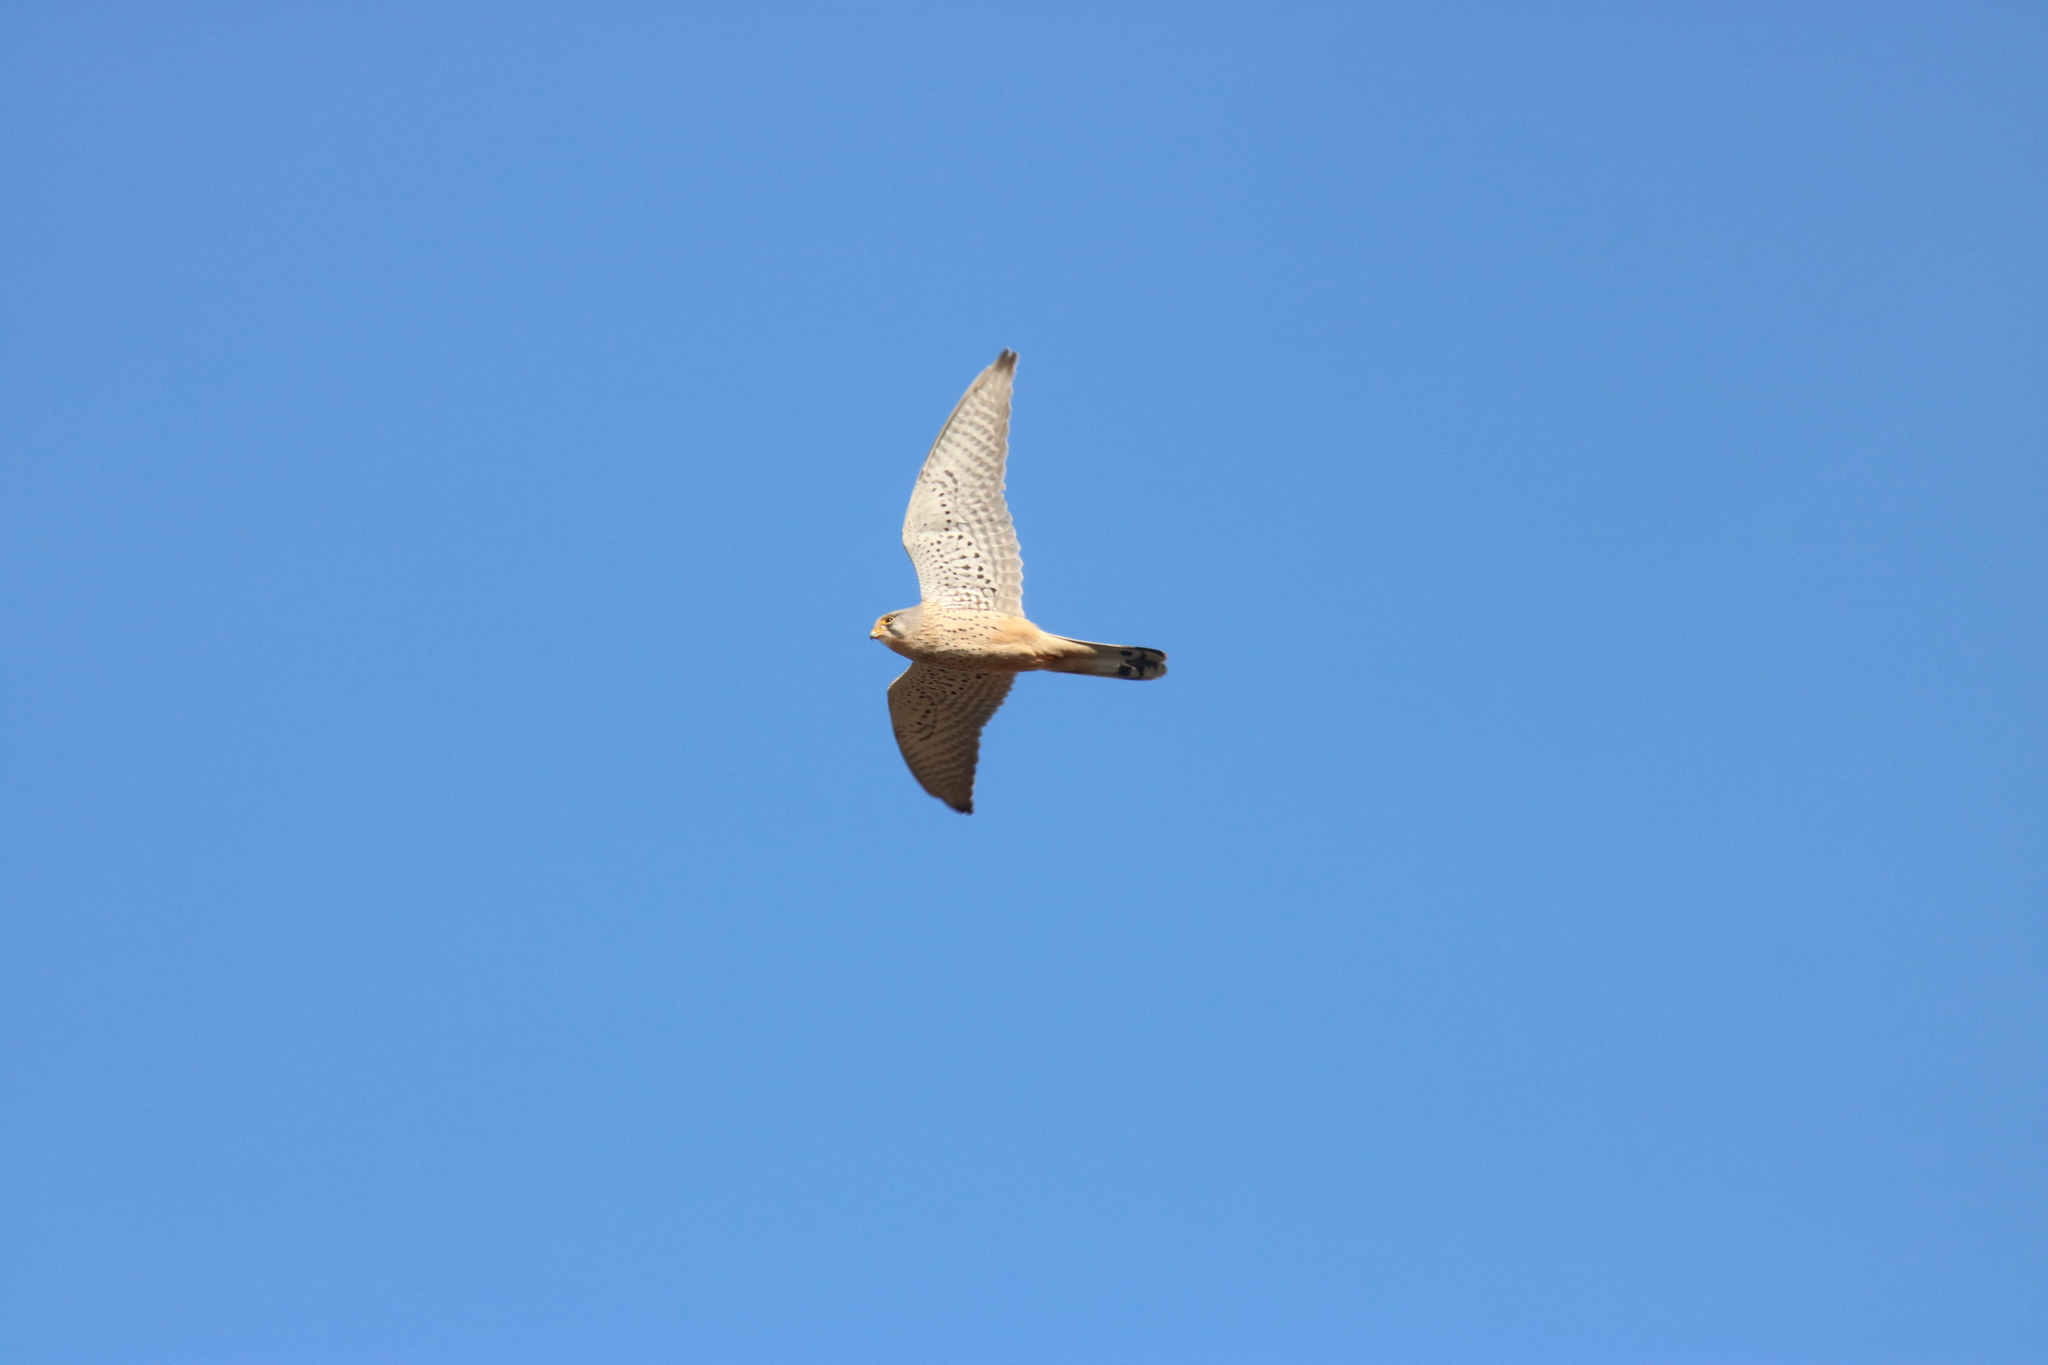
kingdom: Animalia
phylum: Chordata
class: Aves
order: Falconiformes
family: Falconidae
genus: Falco
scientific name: Falco tinnunculus
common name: Common kestrel
